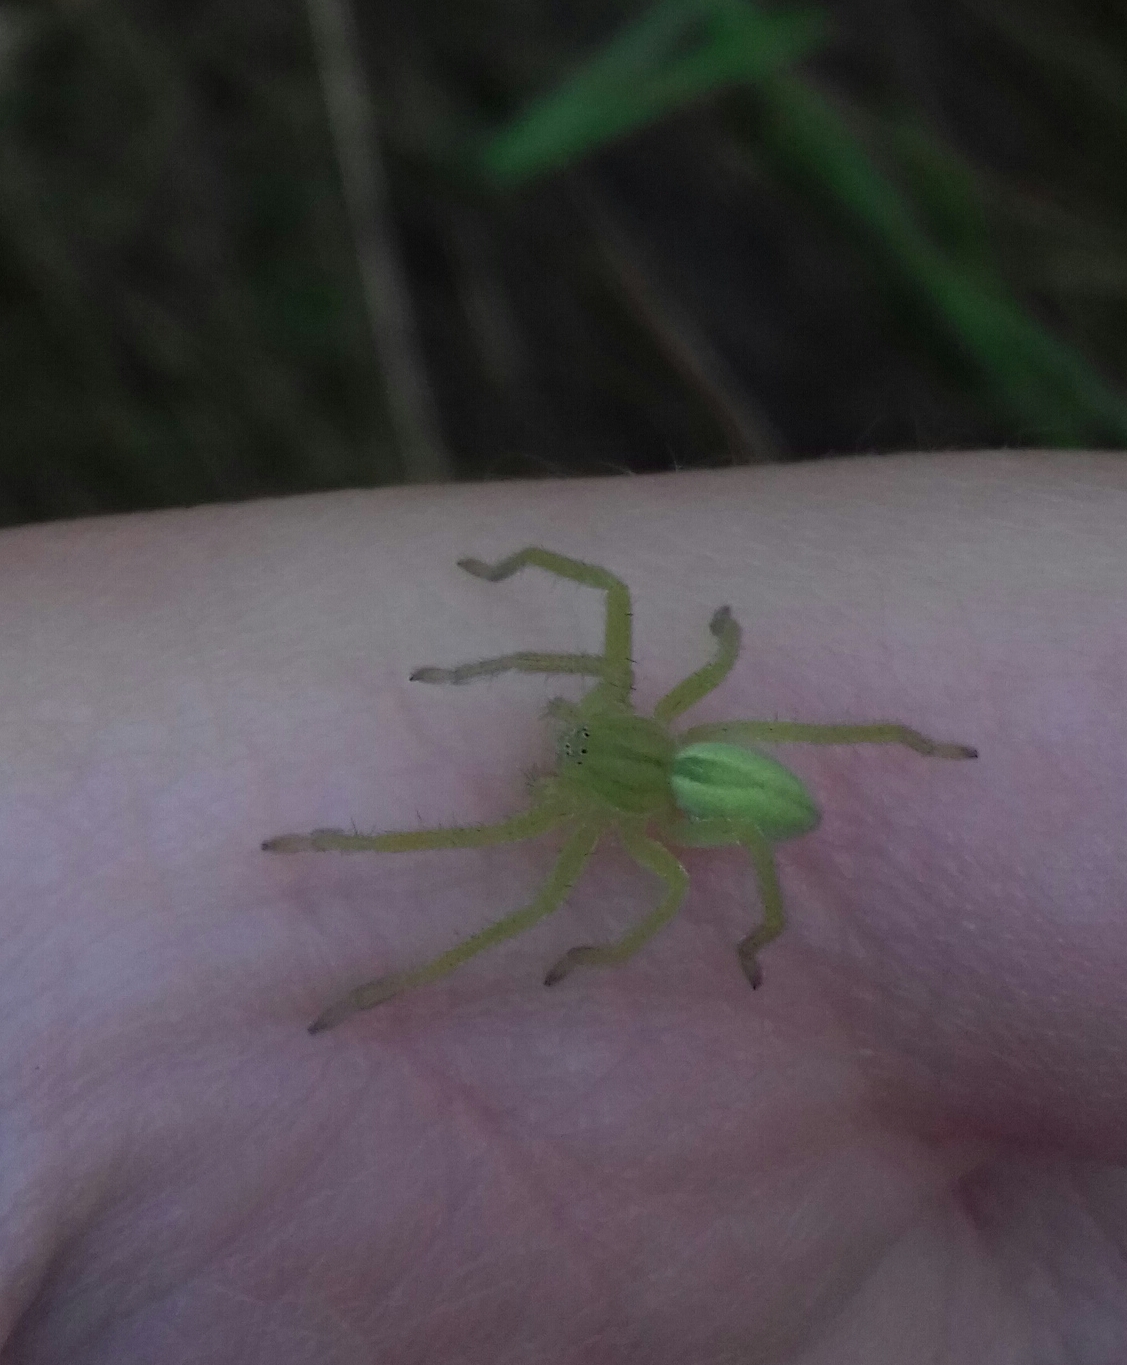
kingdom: Animalia
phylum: Arthropoda
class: Arachnida
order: Araneae
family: Sparassidae
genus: Micrommata
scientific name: Micrommata virescens
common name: Green spider
